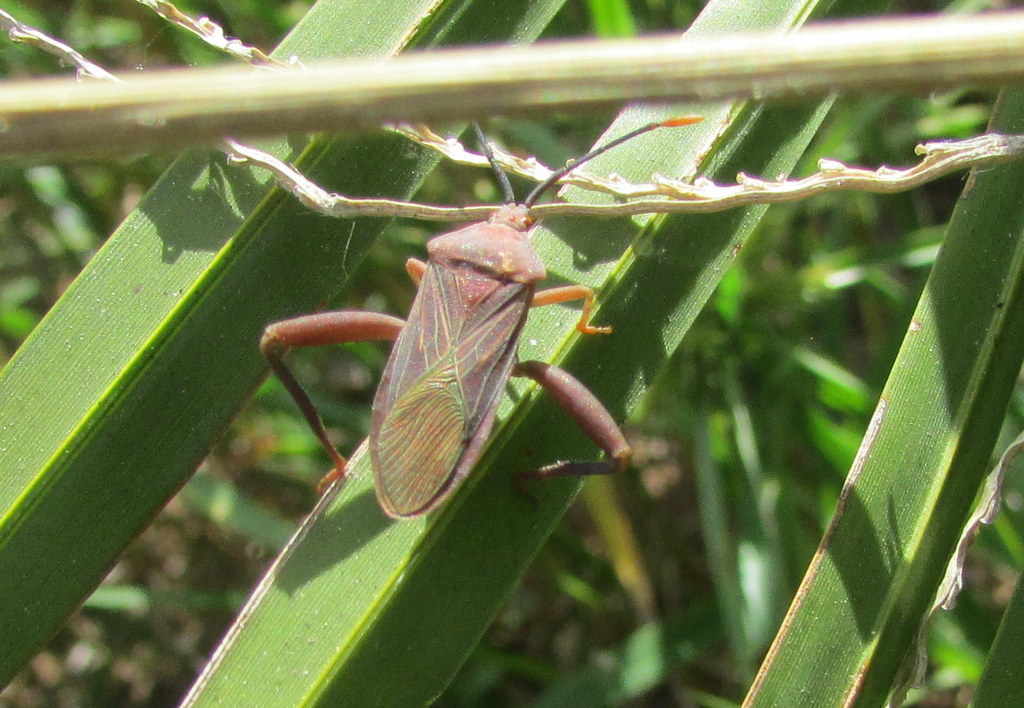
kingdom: Animalia
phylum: Arthropoda
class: Insecta
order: Hemiptera
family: Coreidae
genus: Athaumastus
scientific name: Athaumastus haematicus
